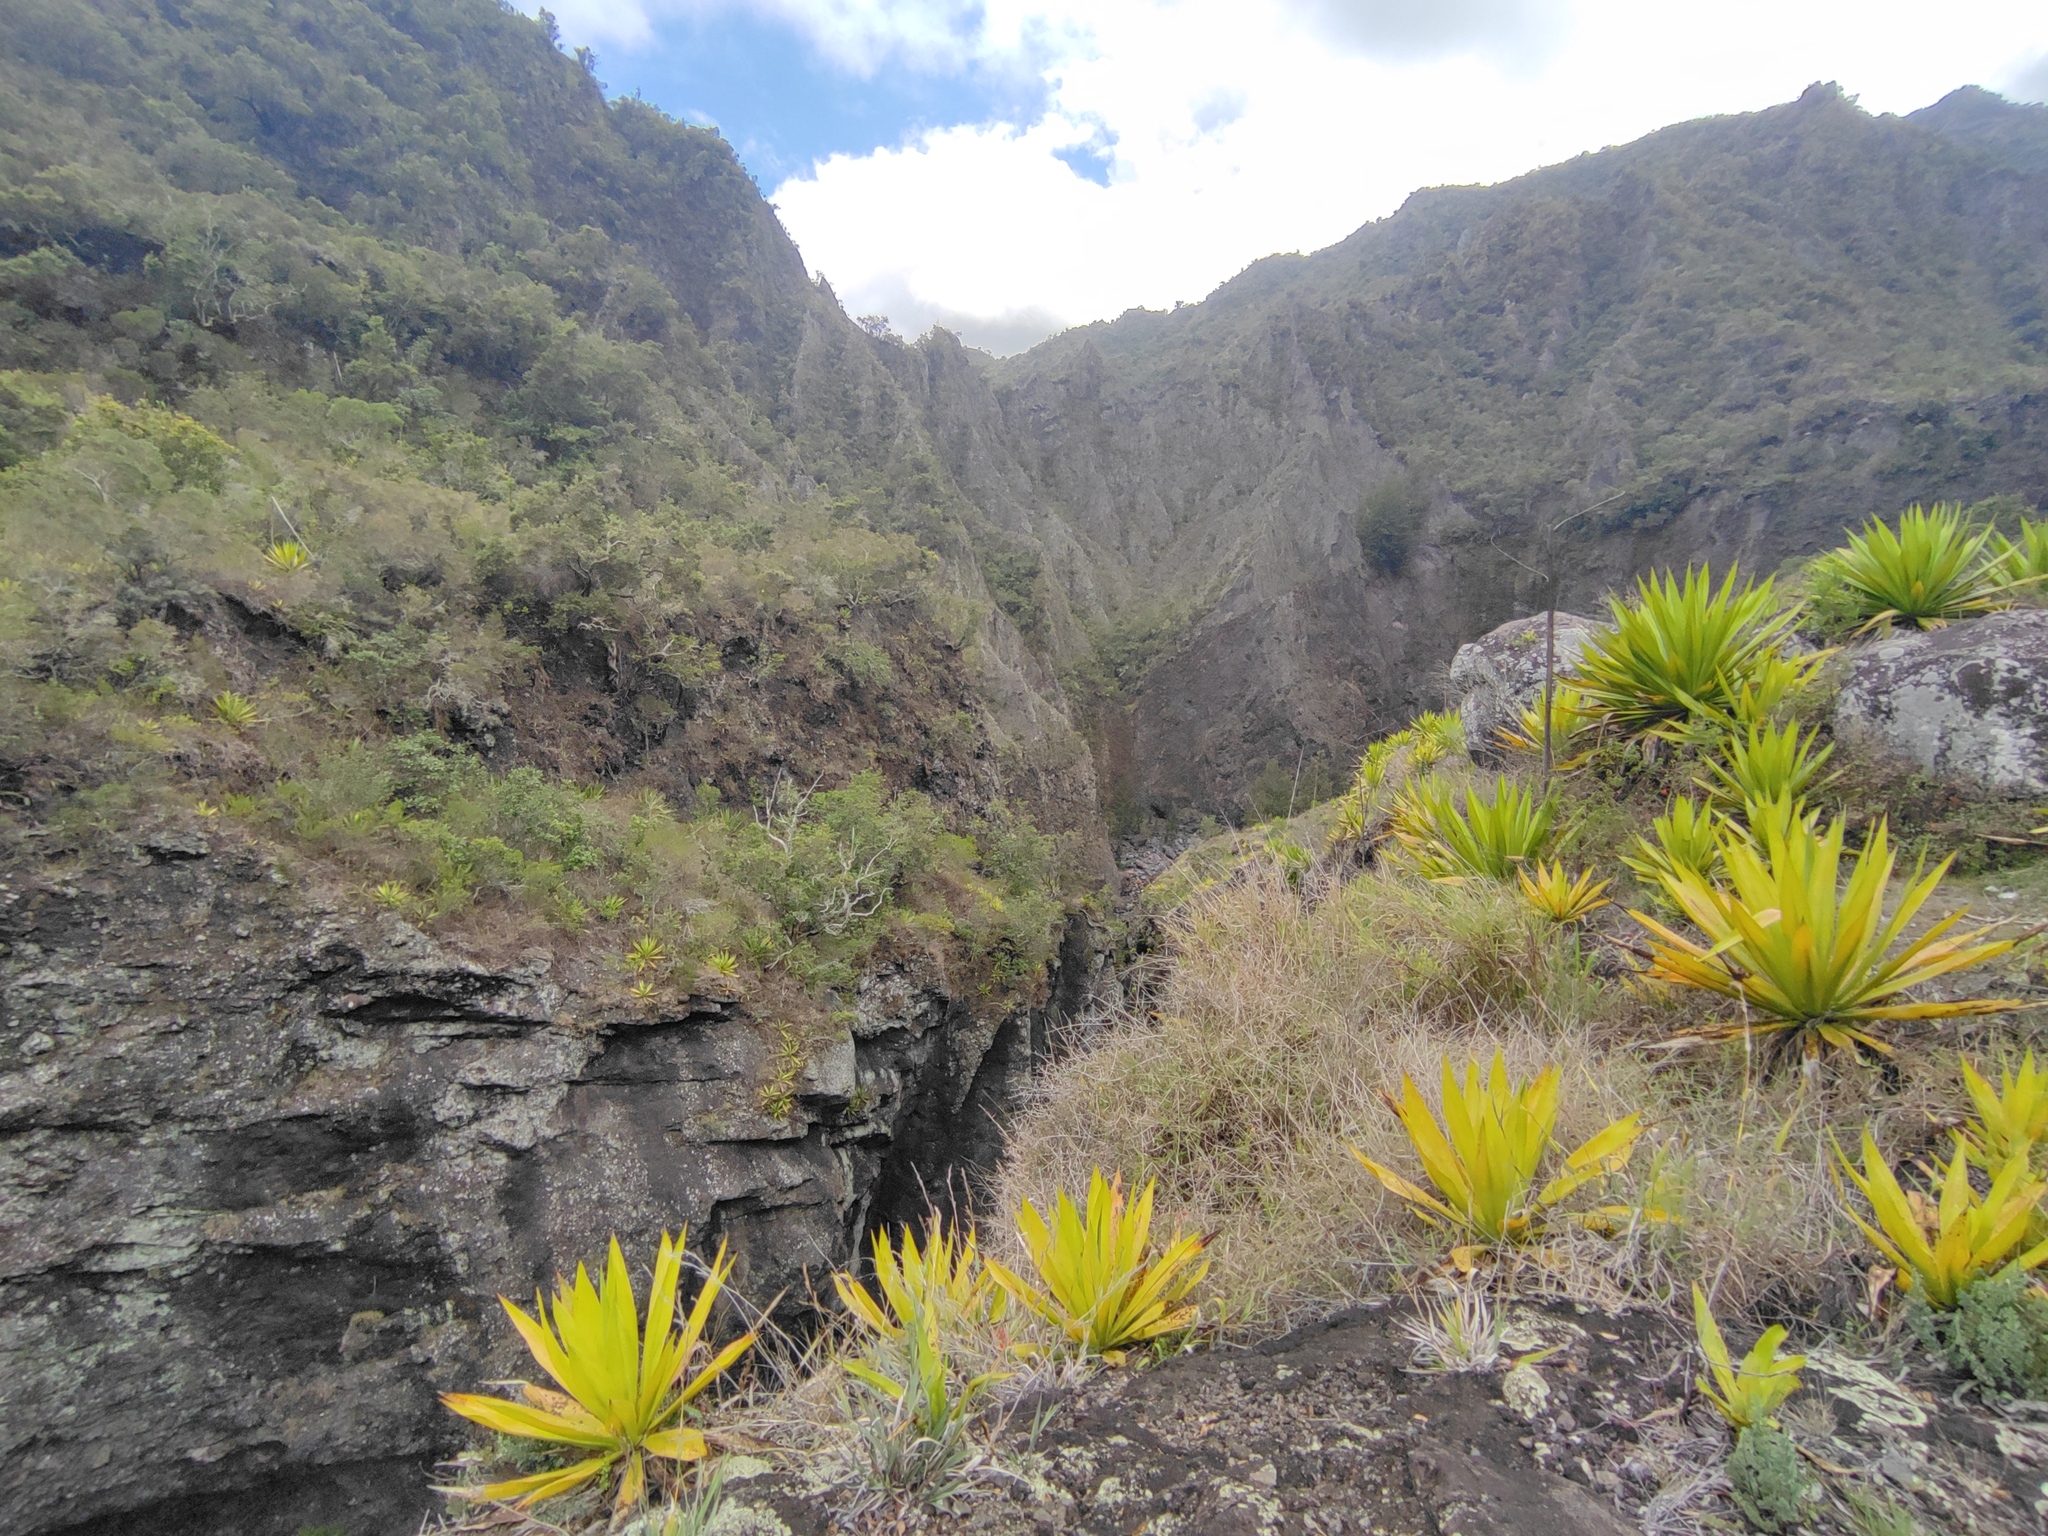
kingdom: Plantae
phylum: Tracheophyta
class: Liliopsida
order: Asparagales
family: Asparagaceae
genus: Furcraea
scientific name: Furcraea foetida
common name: Mauritius hemp
